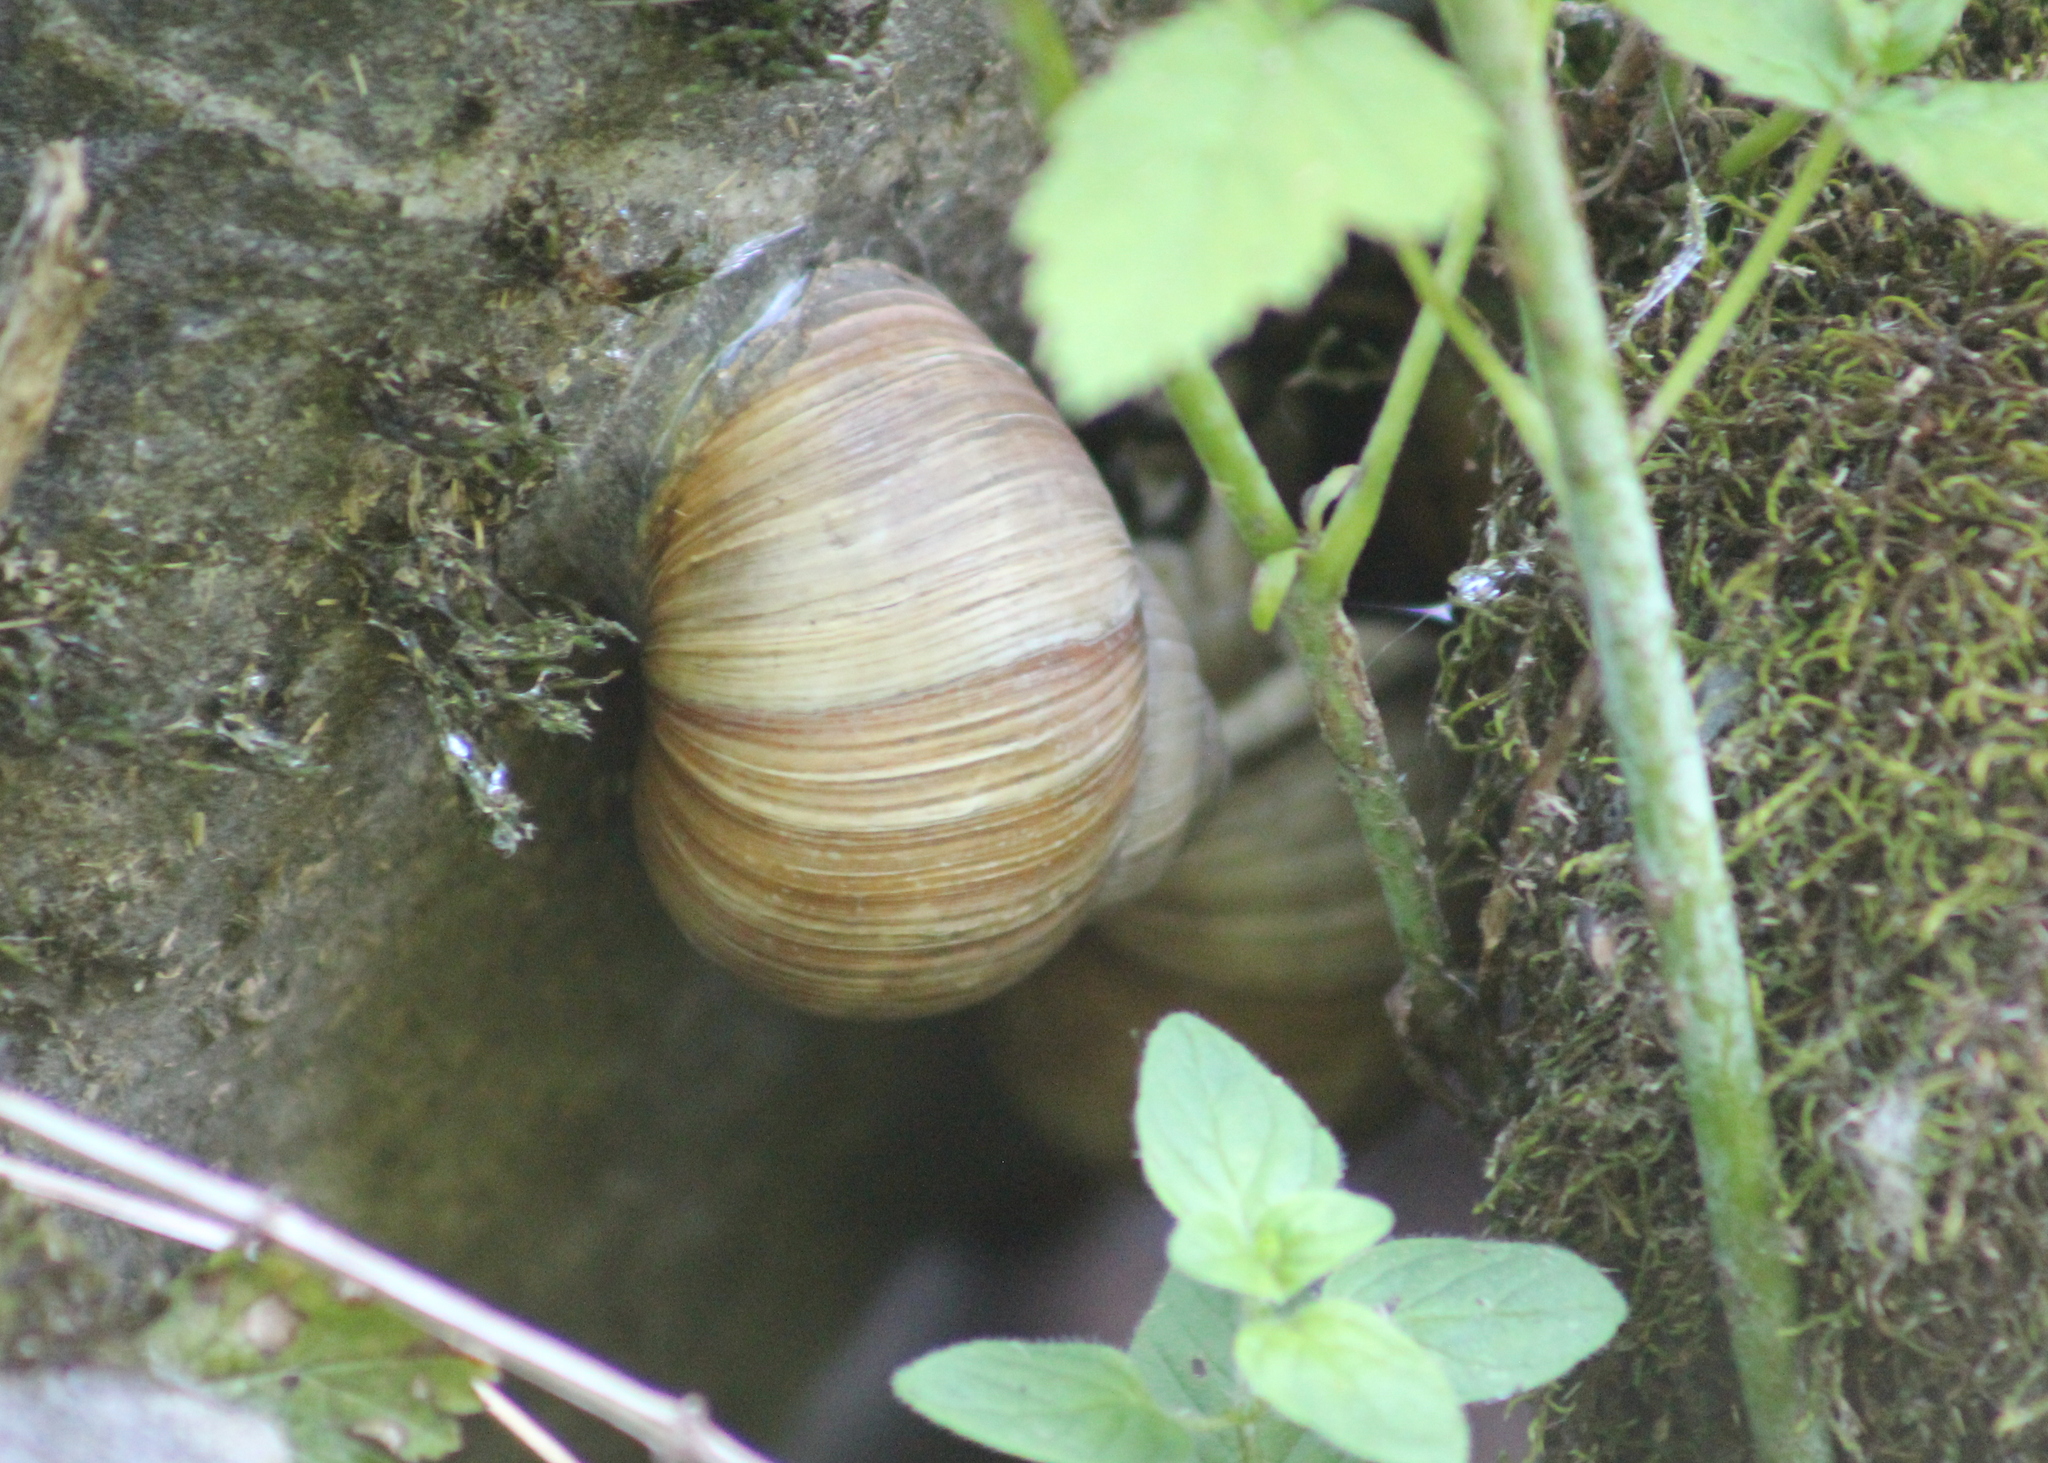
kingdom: Animalia
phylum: Mollusca
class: Gastropoda
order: Stylommatophora
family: Helicidae
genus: Helix
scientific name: Helix pomatia
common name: Roman snail
